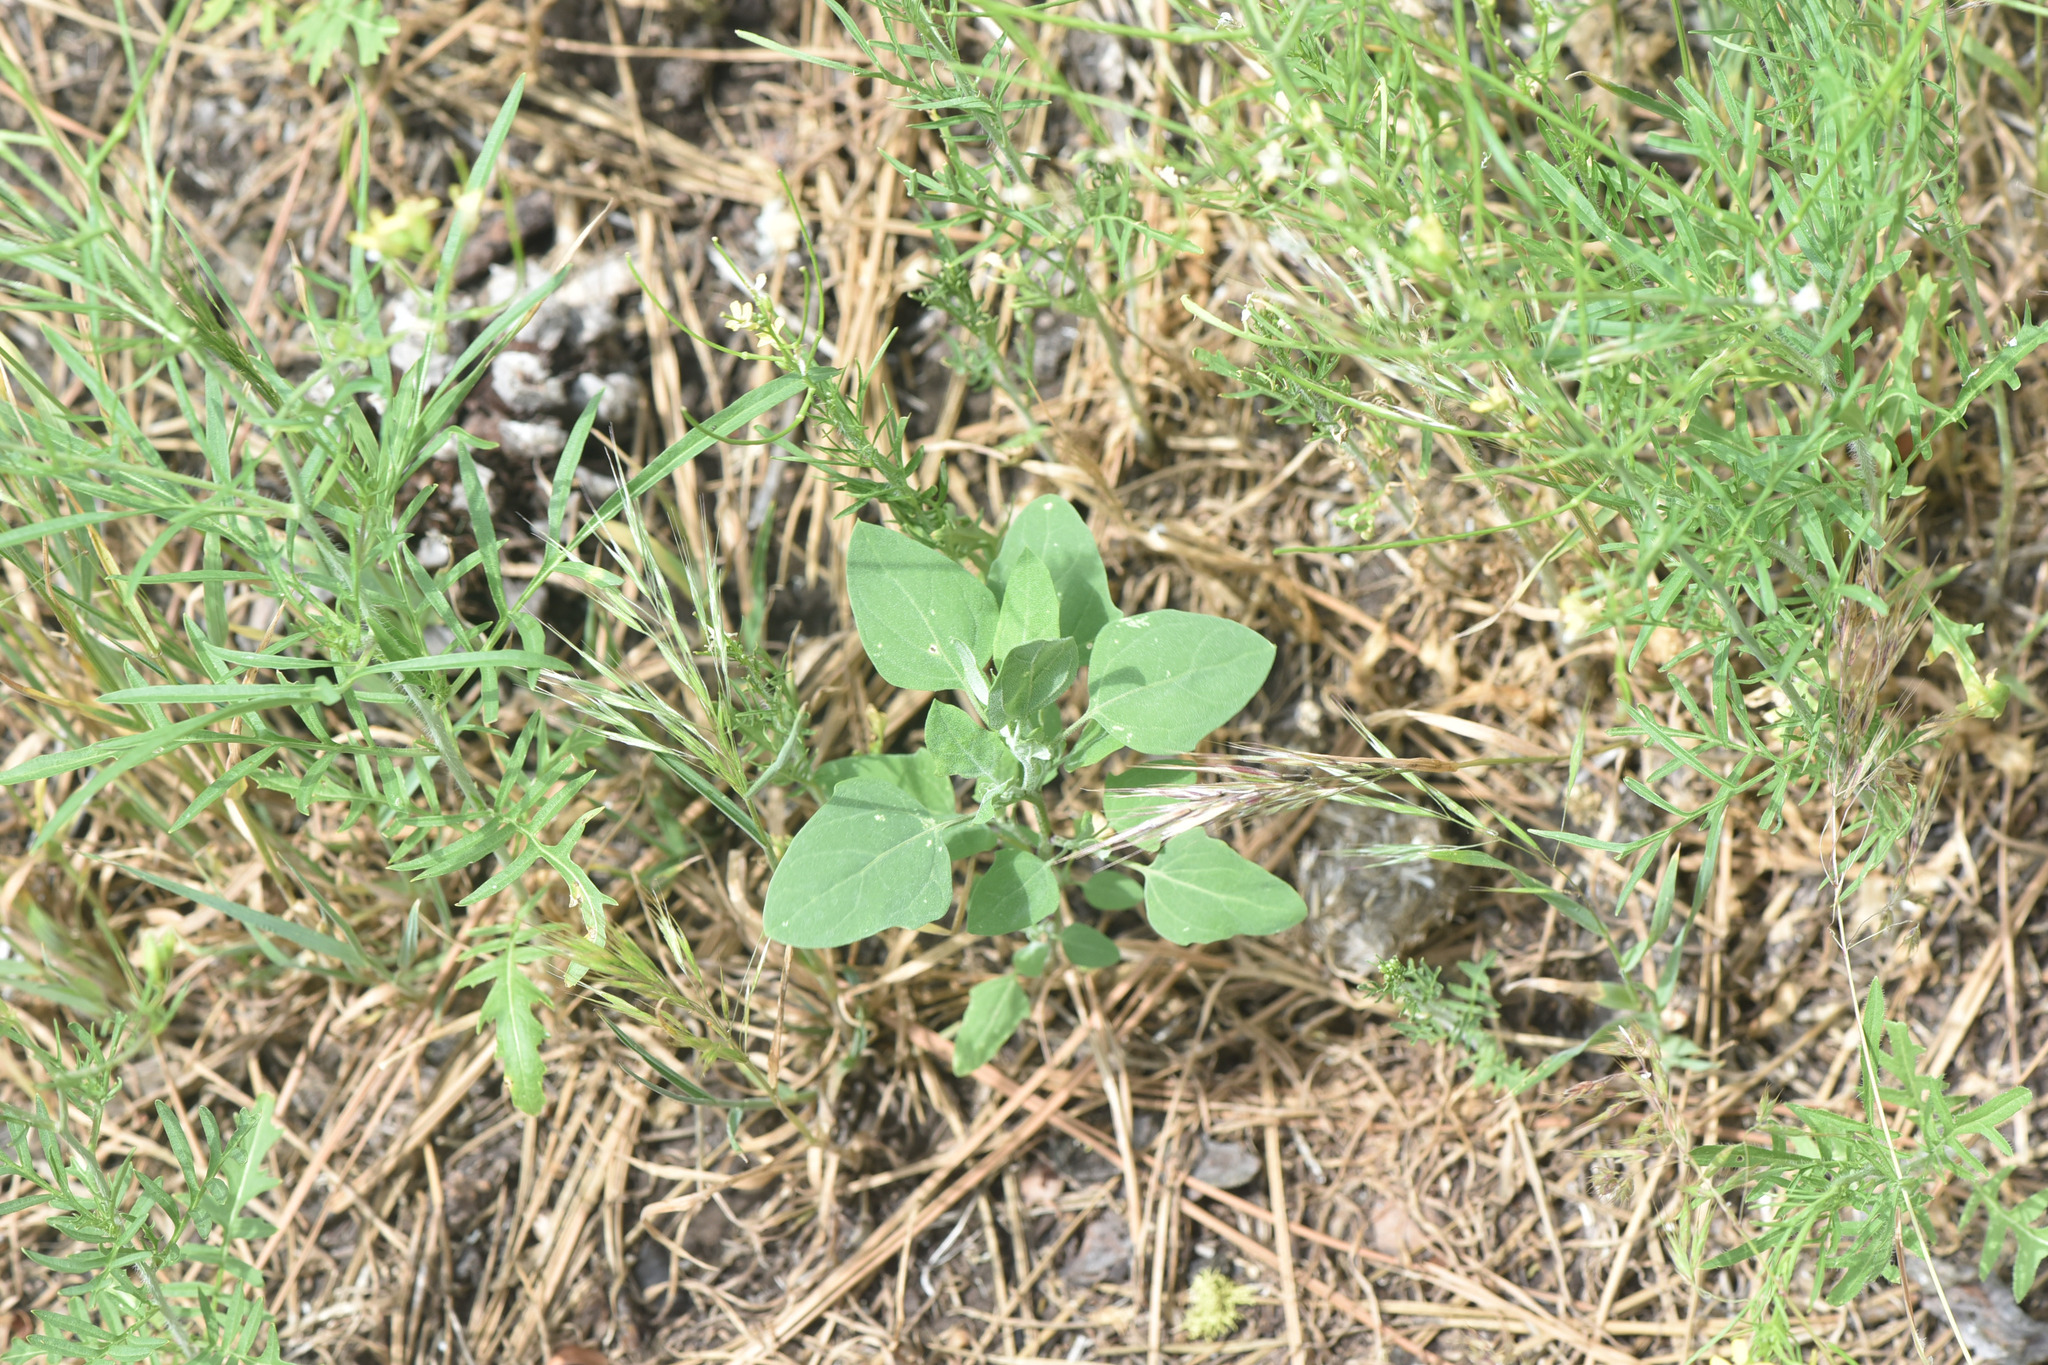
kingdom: Plantae
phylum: Tracheophyta
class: Magnoliopsida
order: Caryophyllales
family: Amaranthaceae
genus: Chenopodium
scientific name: Chenopodium album
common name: Fat-hen
